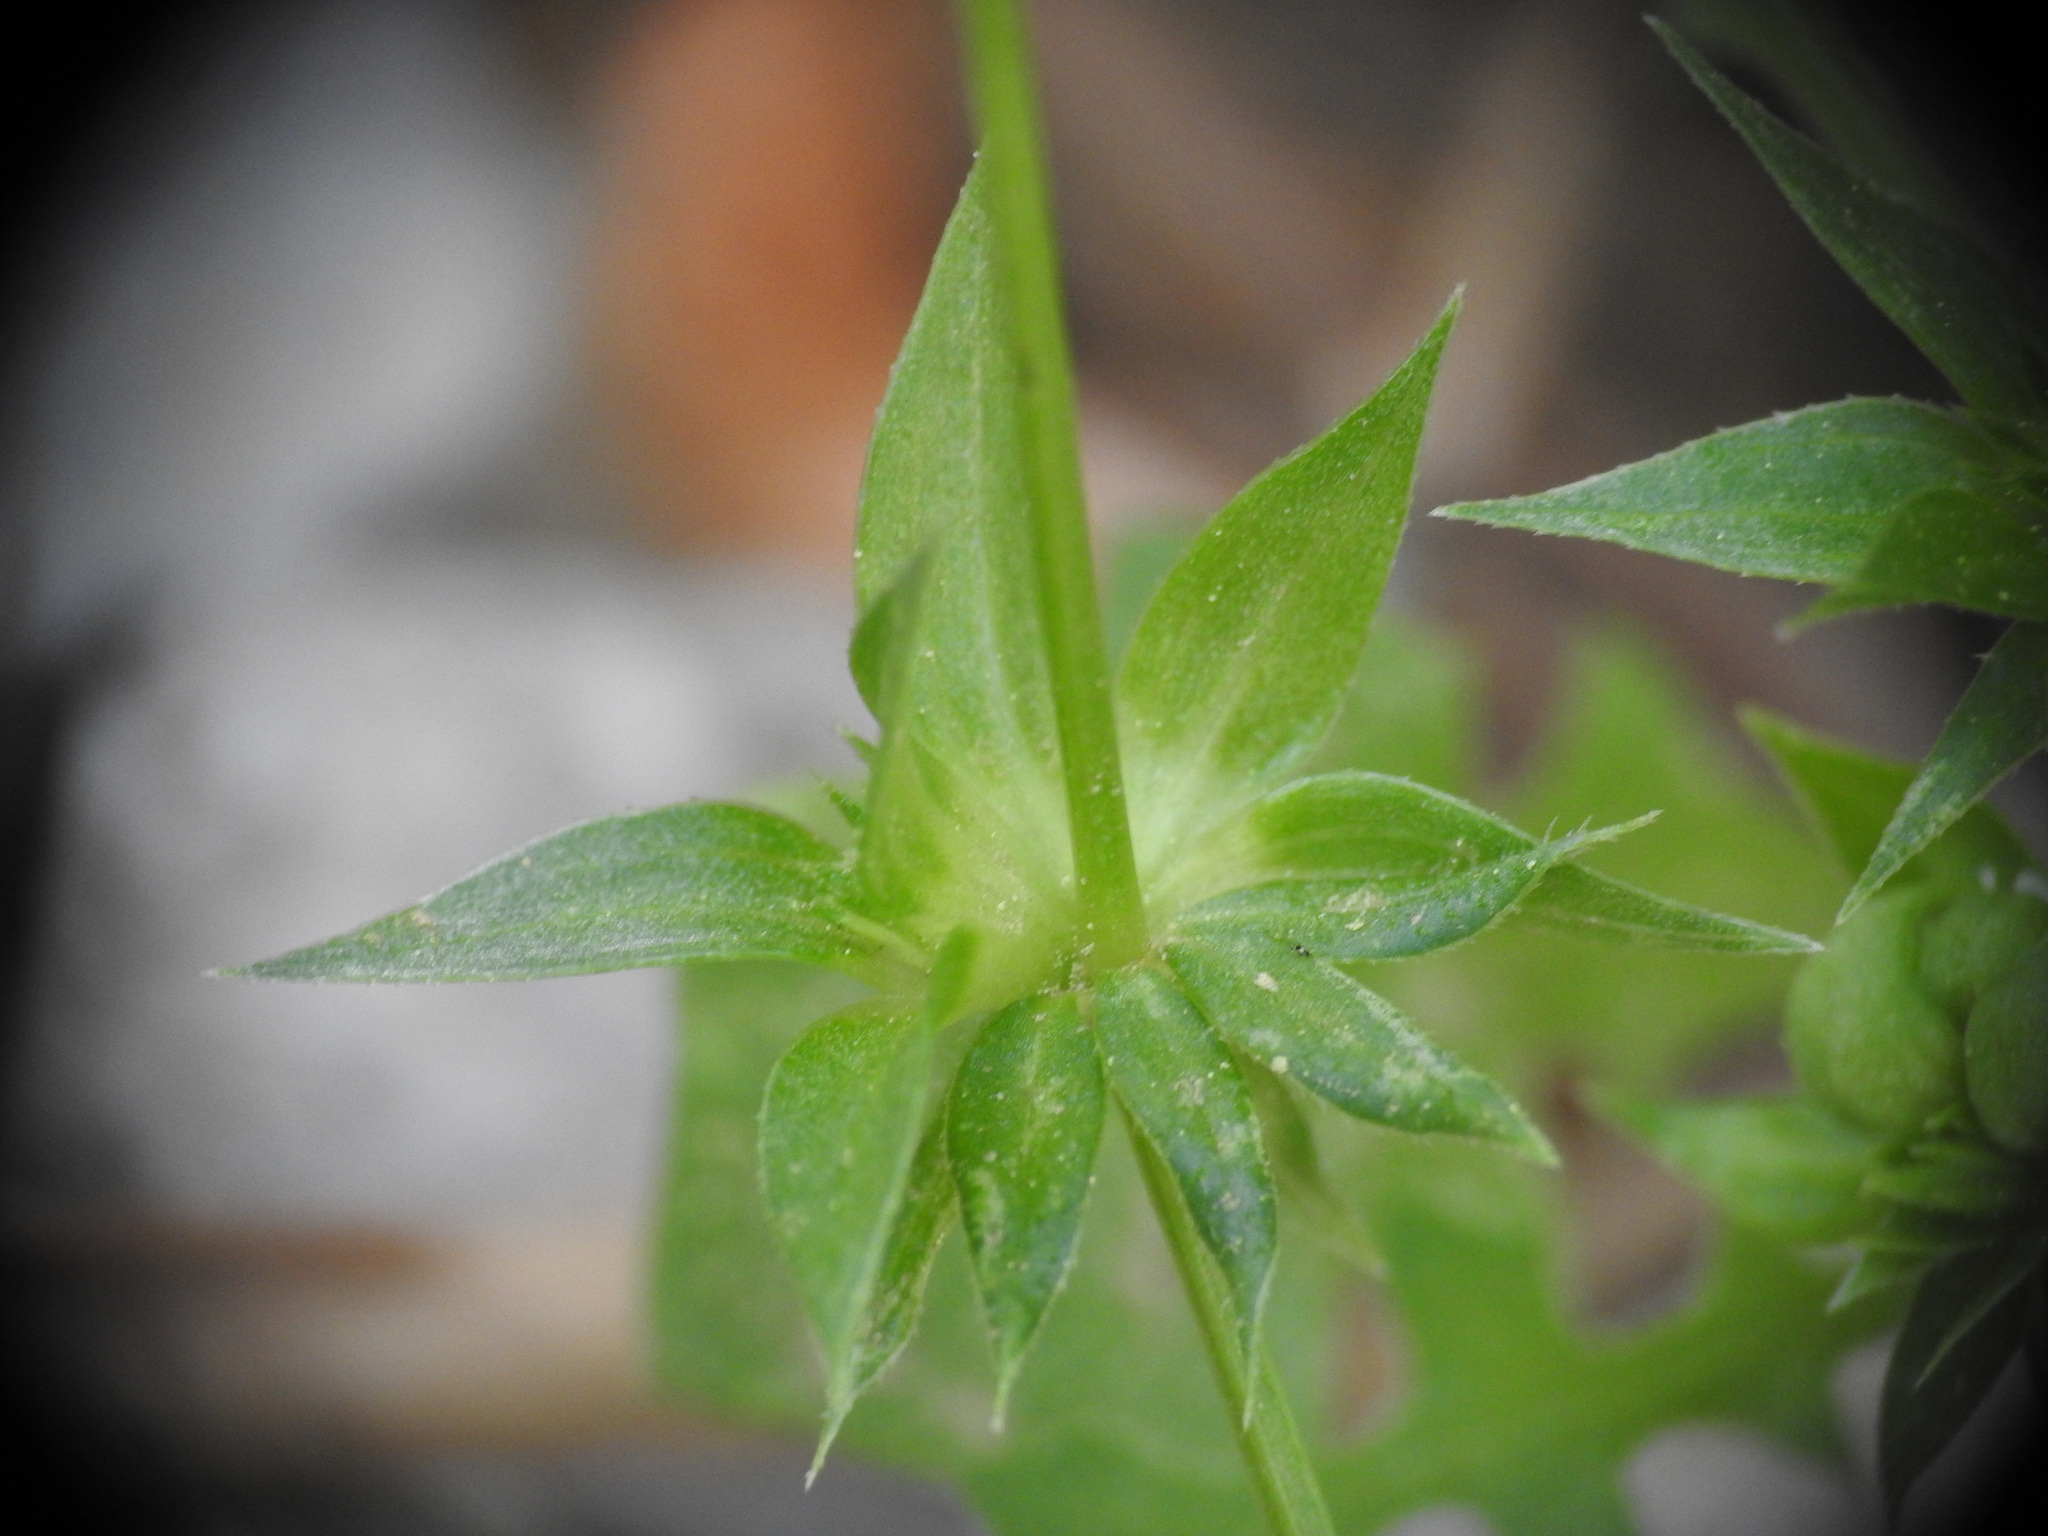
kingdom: Plantae
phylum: Tracheophyta
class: Magnoliopsida
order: Gentianales
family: Rubiaceae
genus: Sherardia
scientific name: Sherardia arvensis
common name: Field madder
